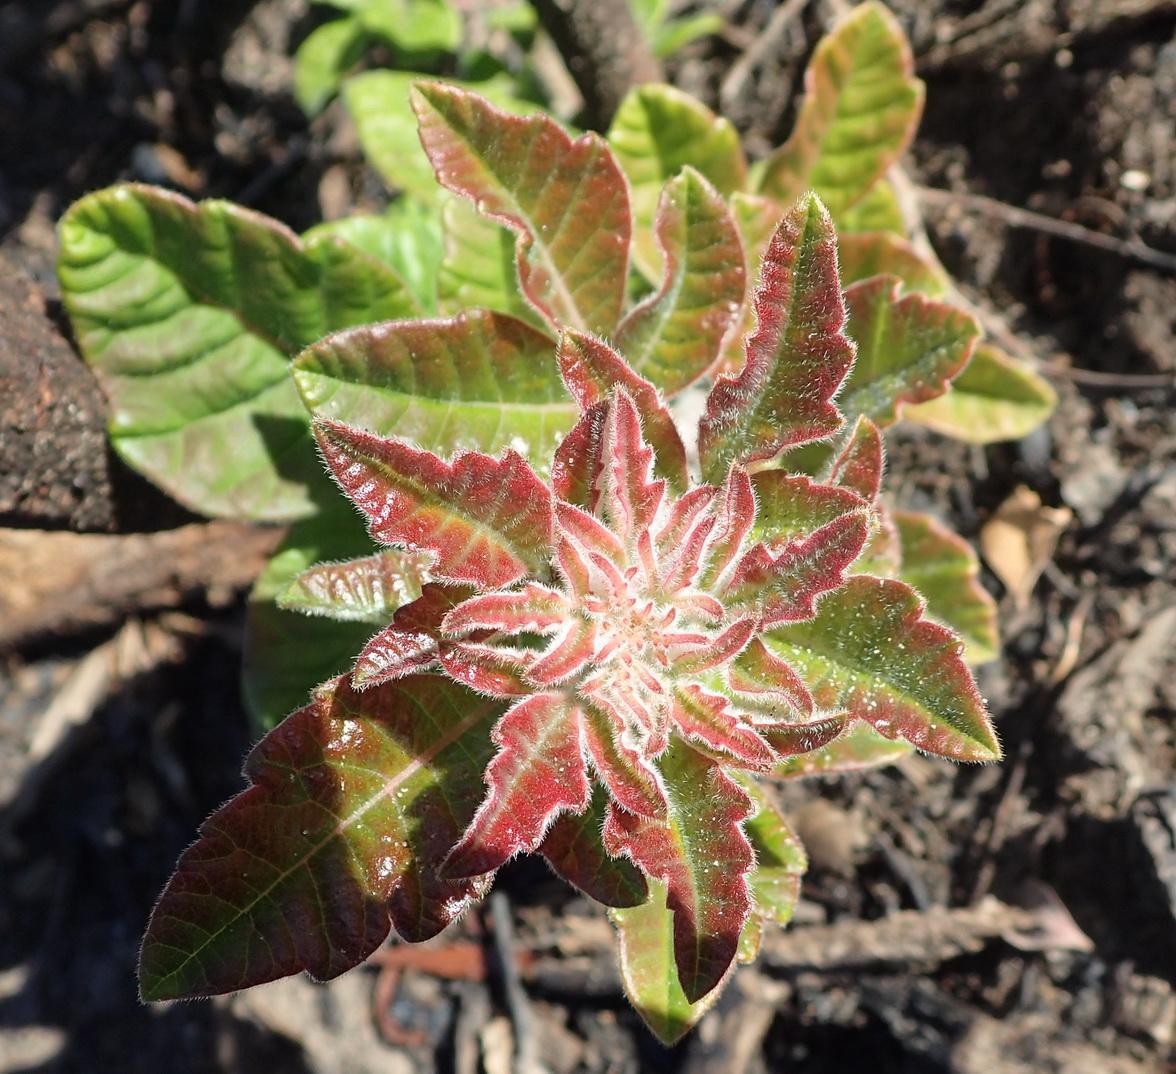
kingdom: Plantae
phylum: Tracheophyta
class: Magnoliopsida
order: Sapindales
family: Anacardiaceae
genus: Searsia
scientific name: Searsia tomentosa
